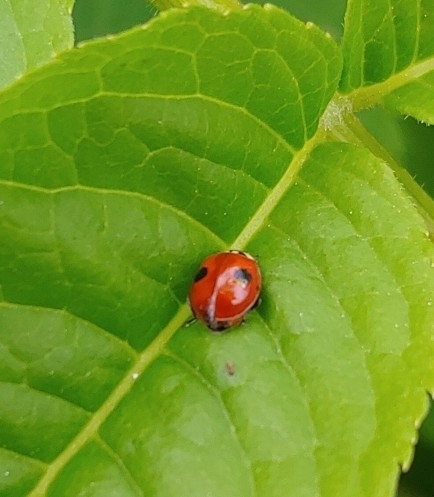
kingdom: Animalia
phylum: Arthropoda
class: Insecta
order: Coleoptera
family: Coccinellidae
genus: Adalia
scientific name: Adalia bipunctata
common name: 2-spot ladybird
